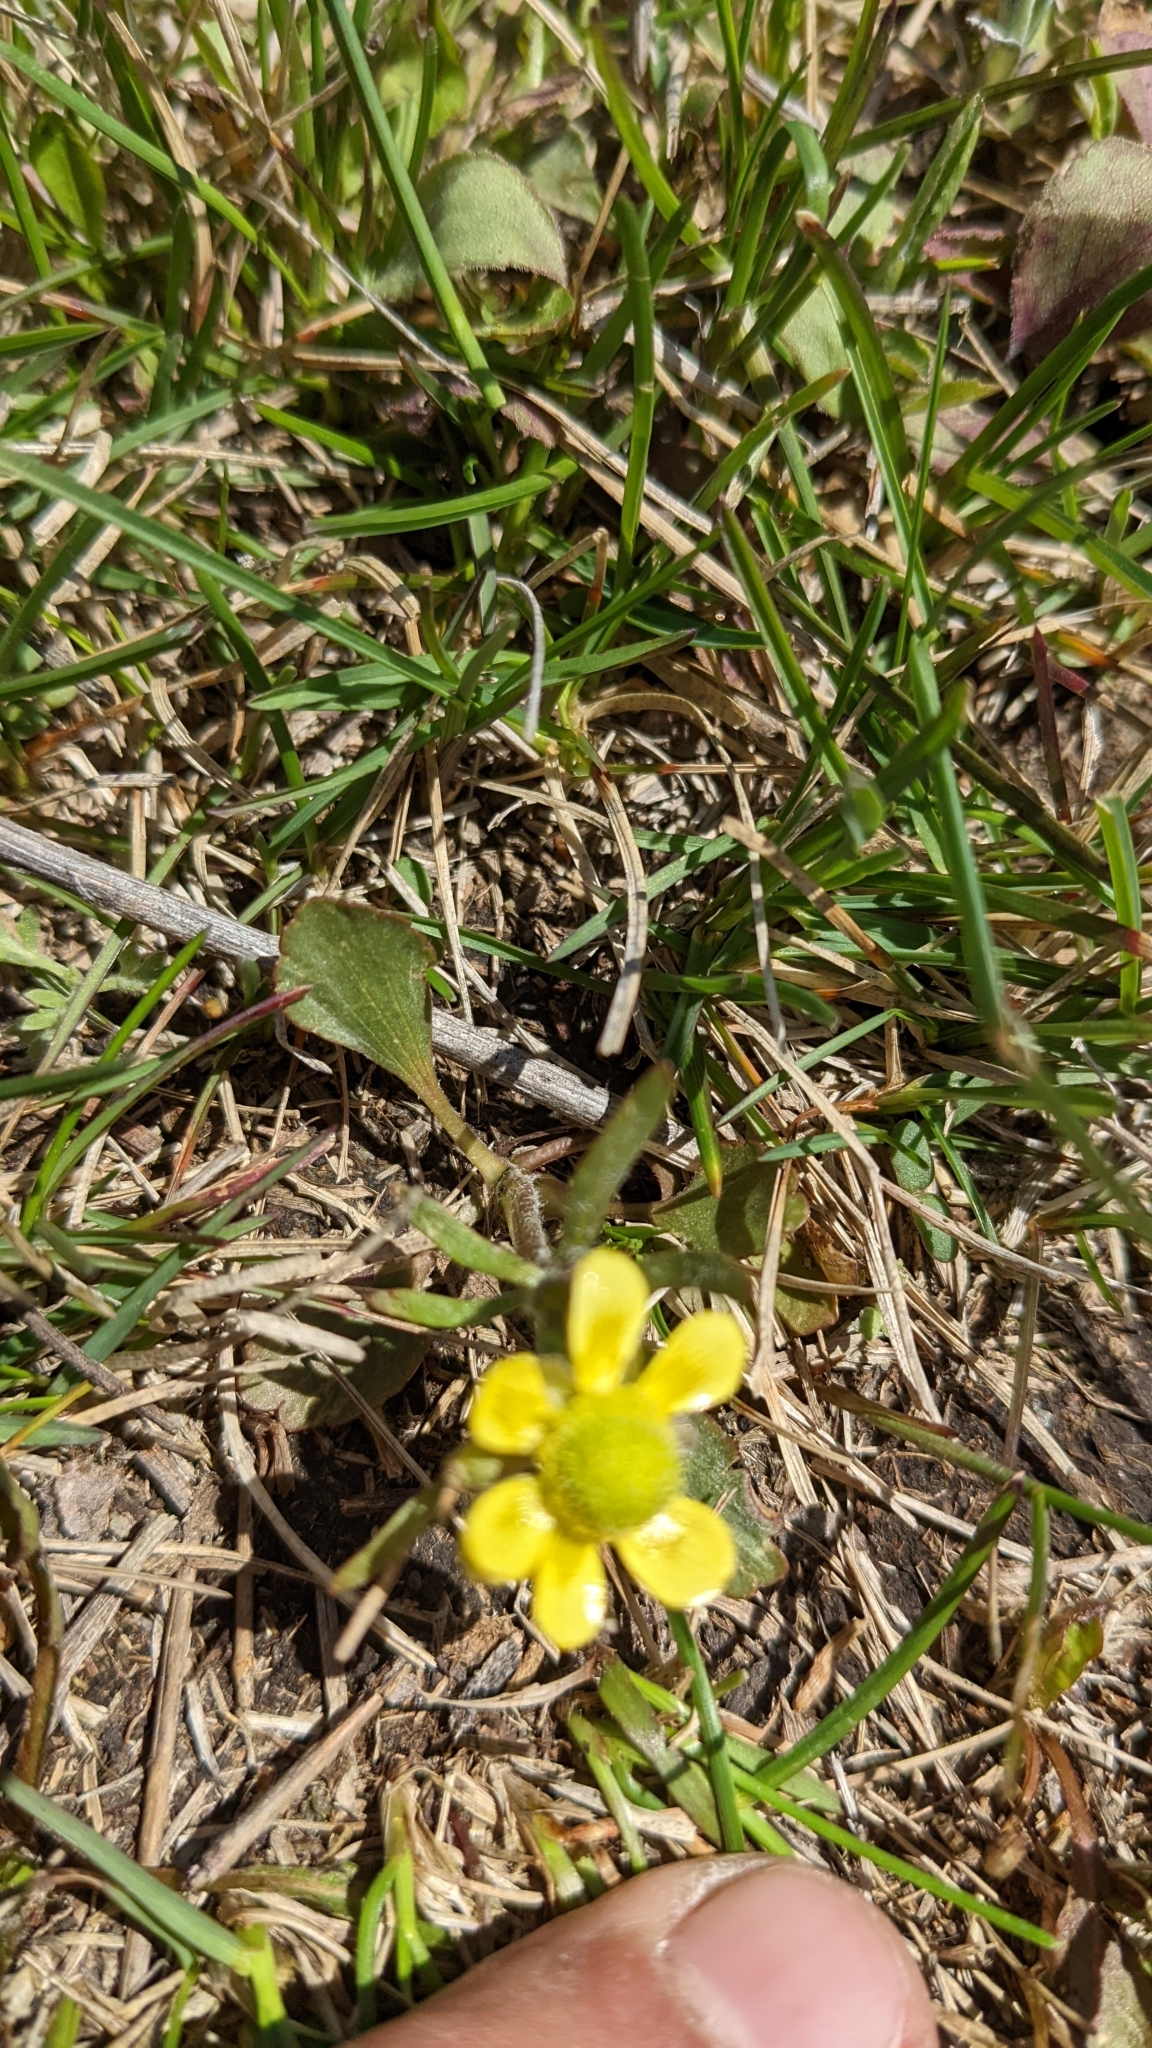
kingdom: Plantae
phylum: Tracheophyta
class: Magnoliopsida
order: Ranunculales
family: Ranunculaceae
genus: Ranunculus
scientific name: Ranunculus rhomboideus
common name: Prairie buttercup
